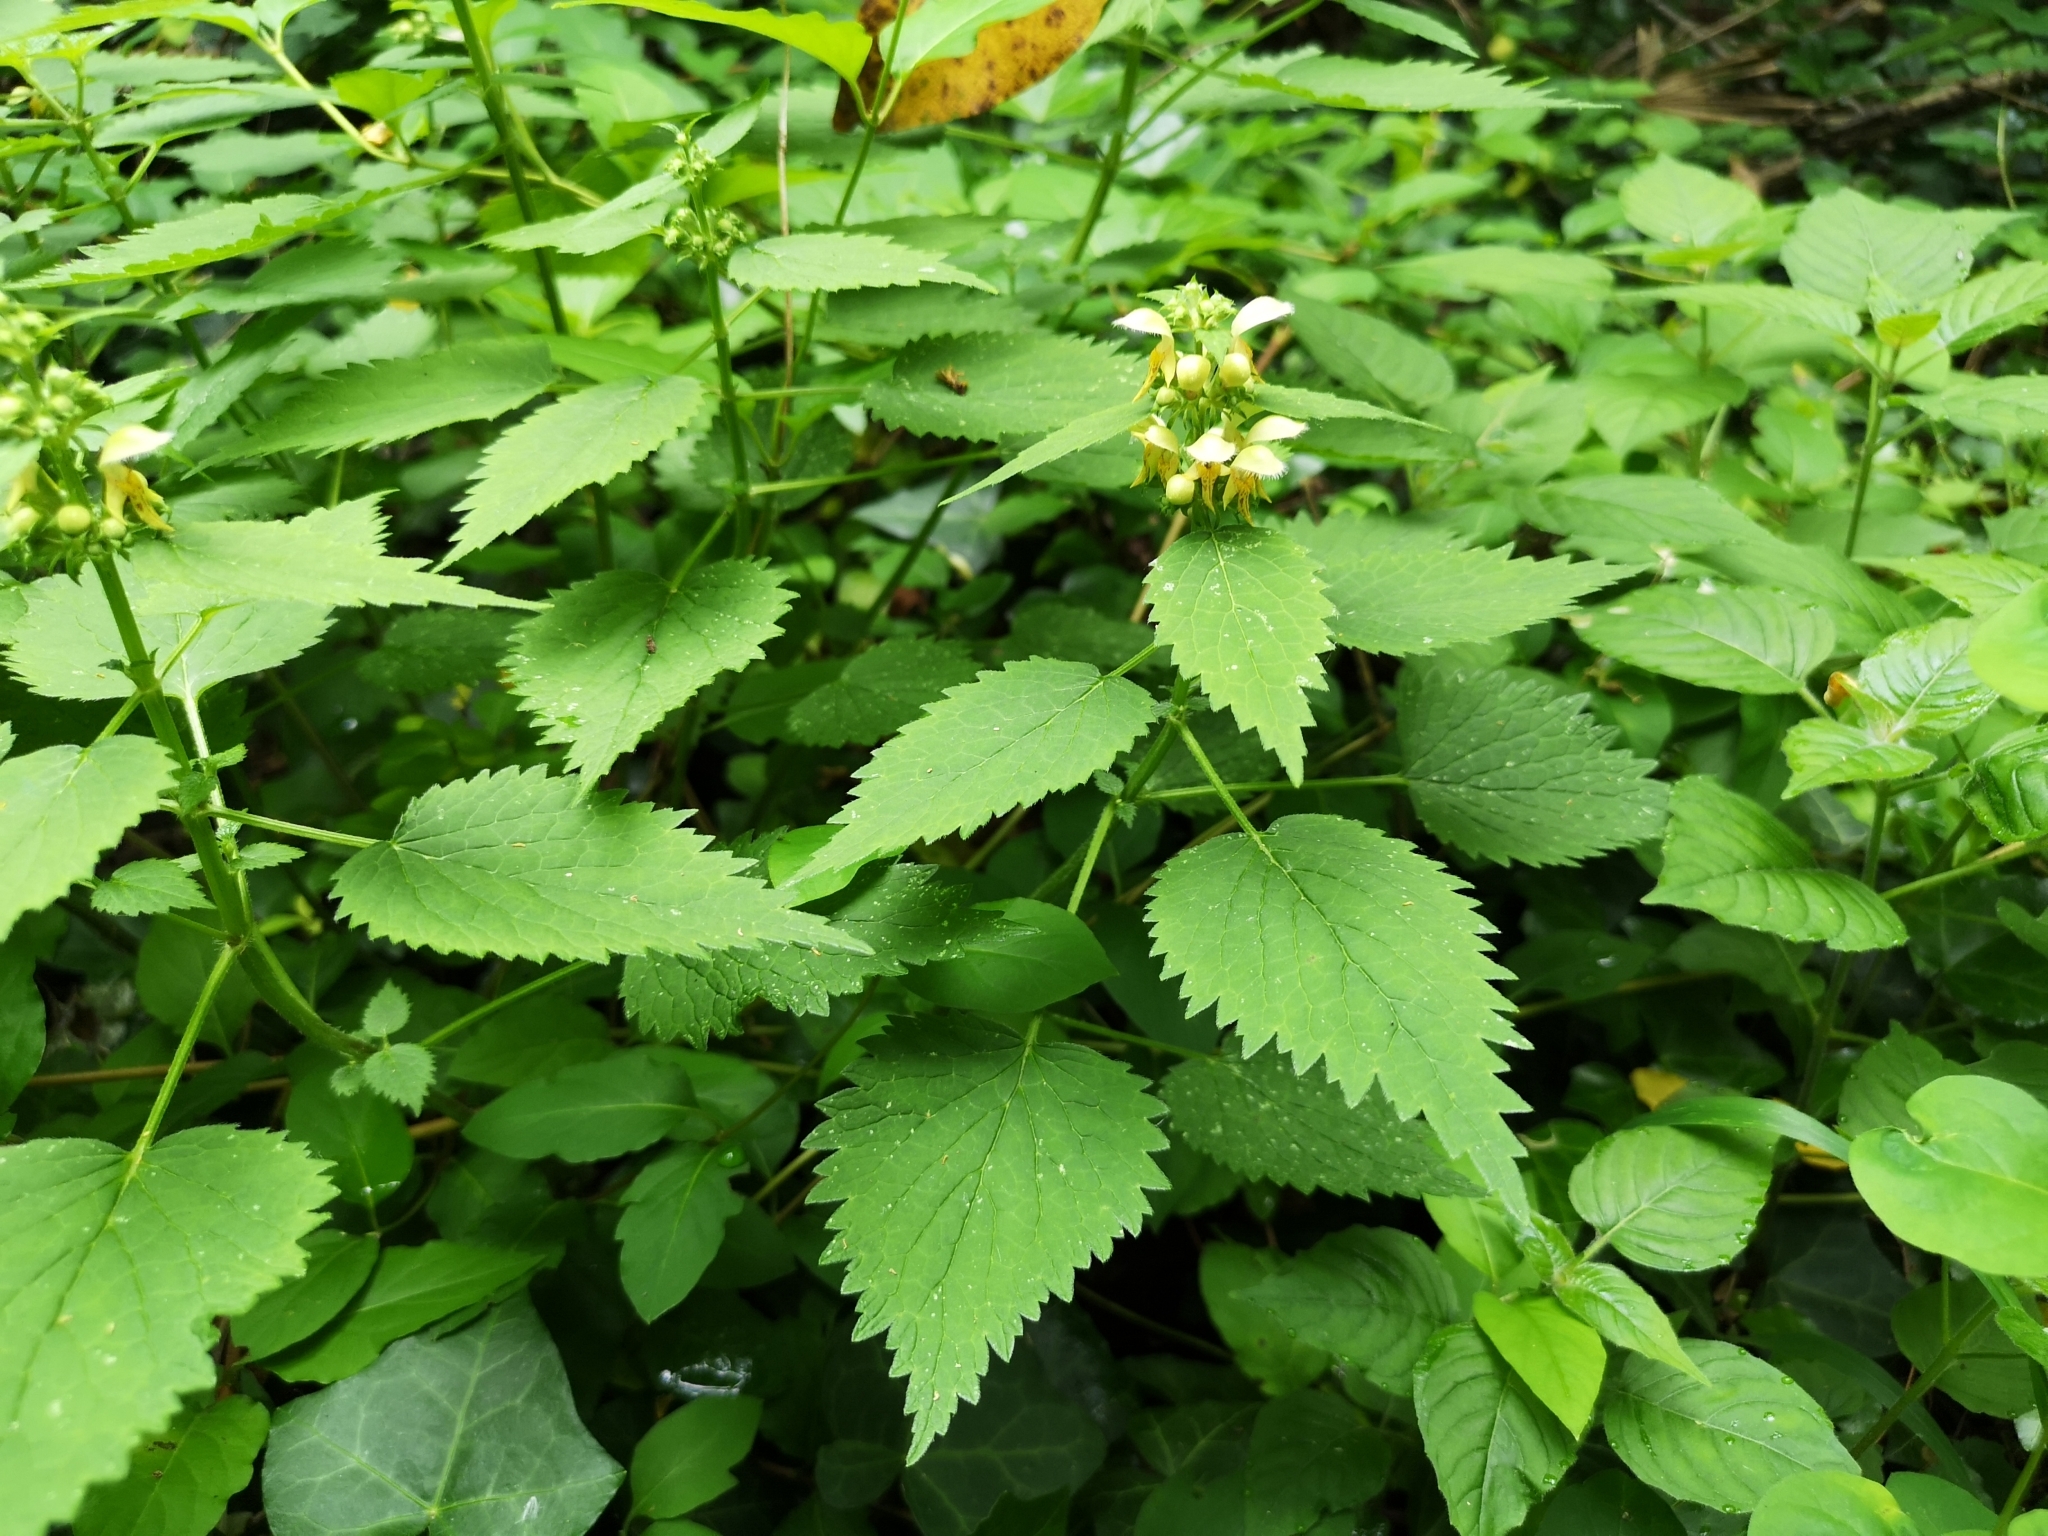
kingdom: Plantae
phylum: Tracheophyta
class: Magnoliopsida
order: Lamiales
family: Lamiaceae
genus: Lamium
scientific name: Lamium galeobdolon
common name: Yellow archangel
